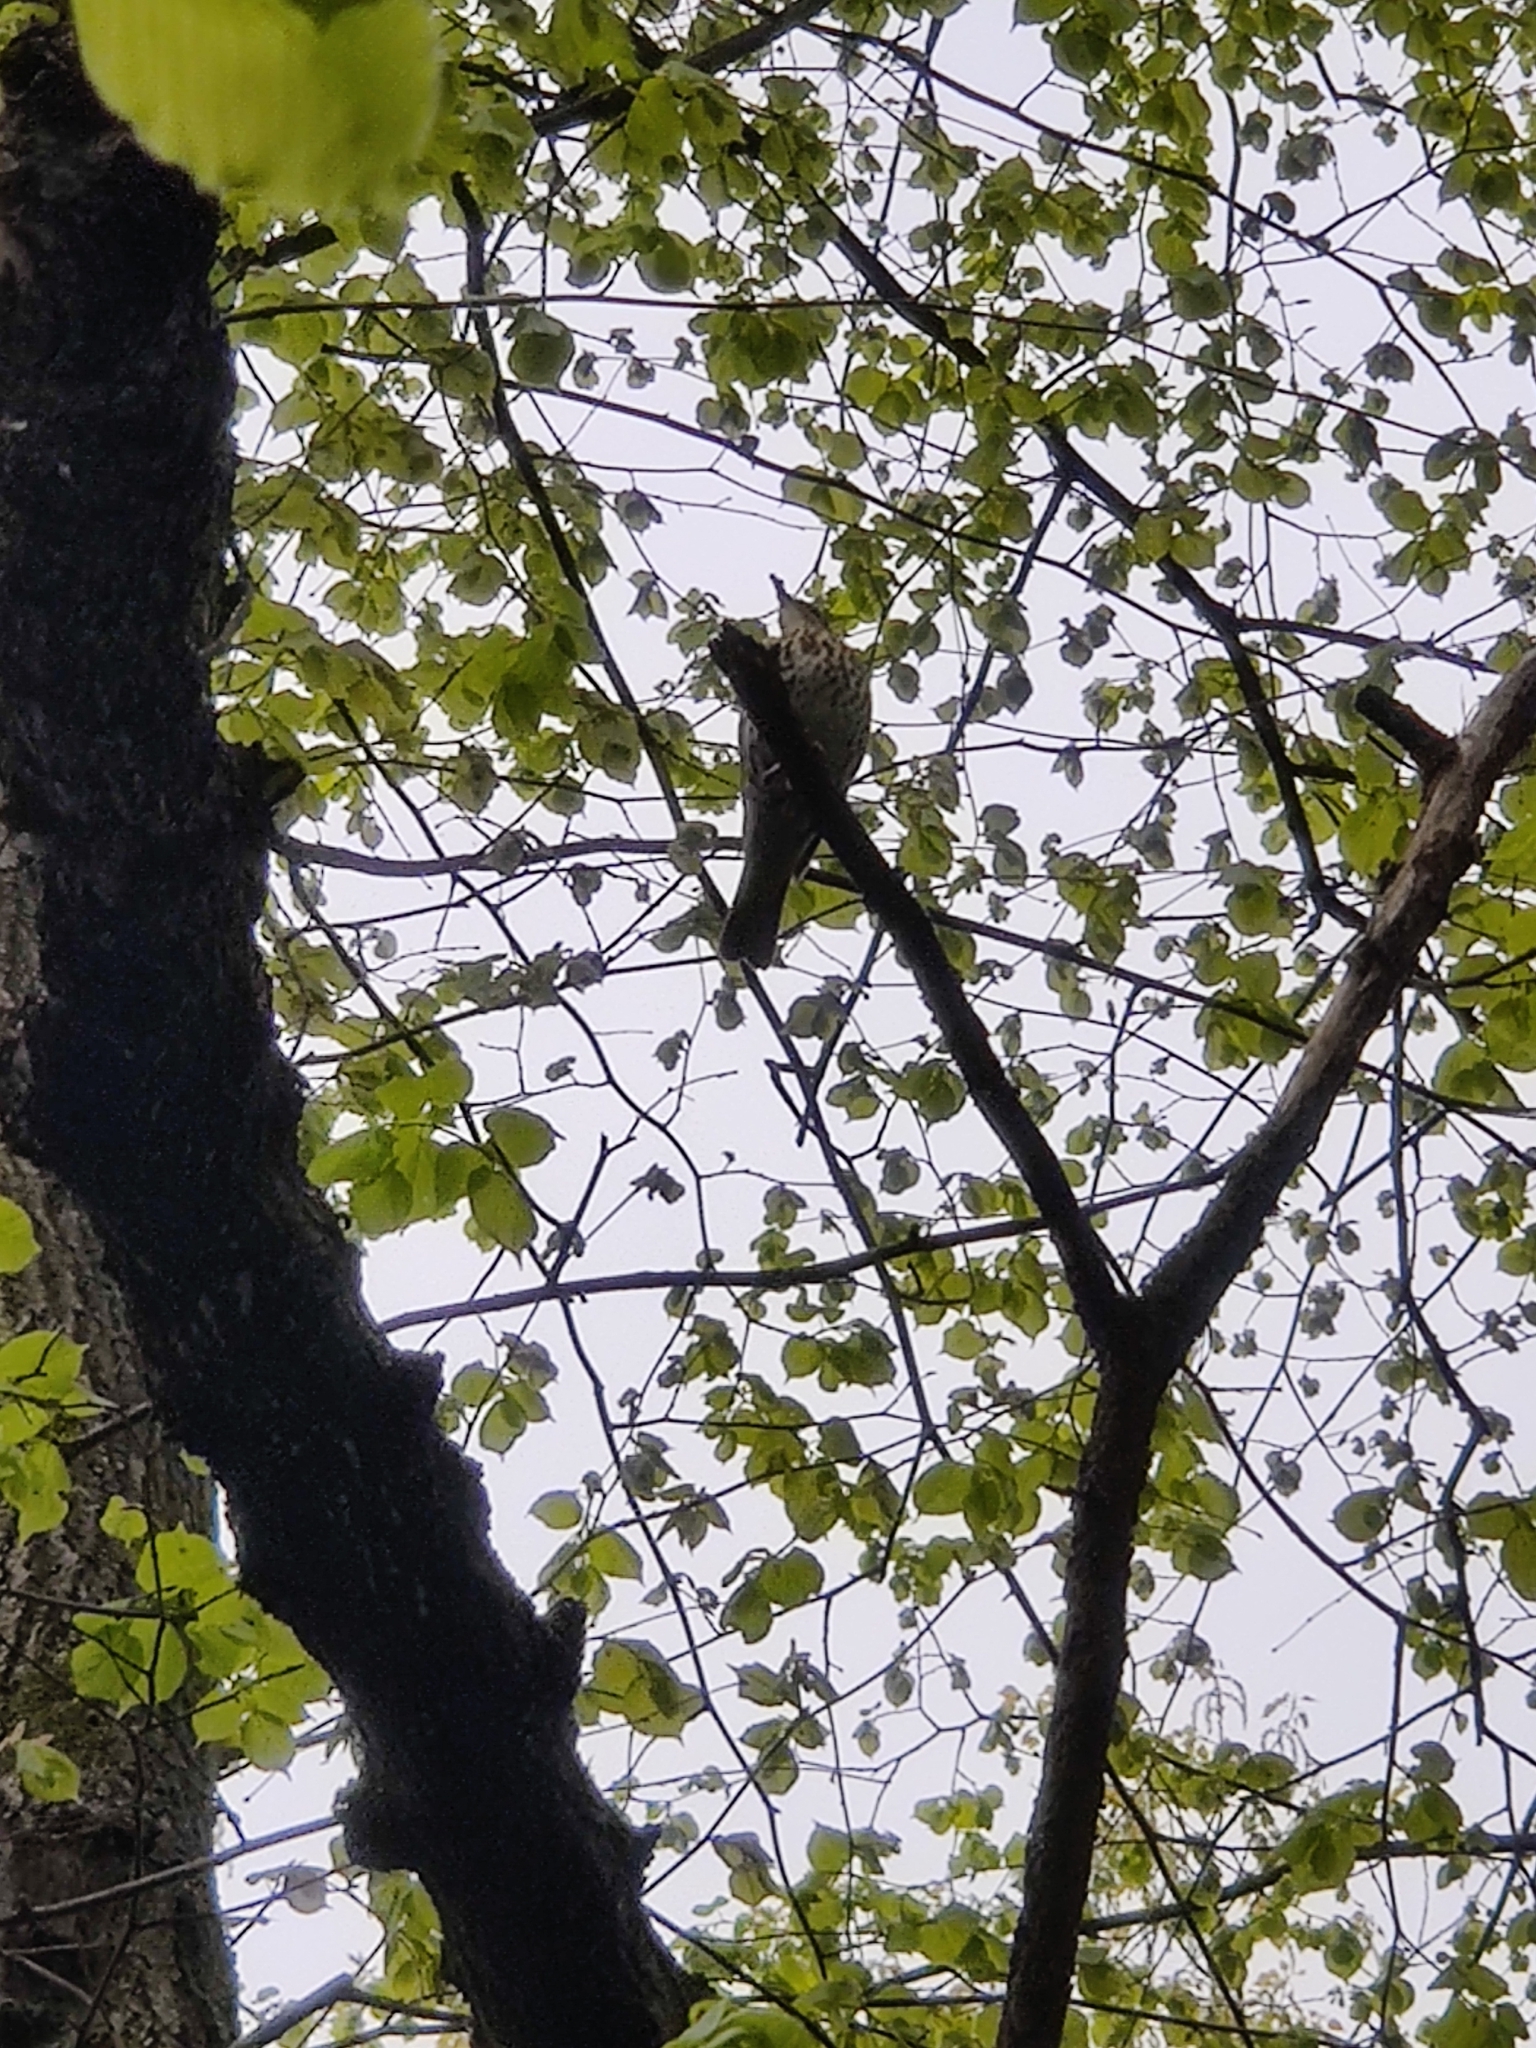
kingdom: Animalia
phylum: Chordata
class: Aves
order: Passeriformes
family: Turdidae
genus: Turdus
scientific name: Turdus philomelos
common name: Song thrush
